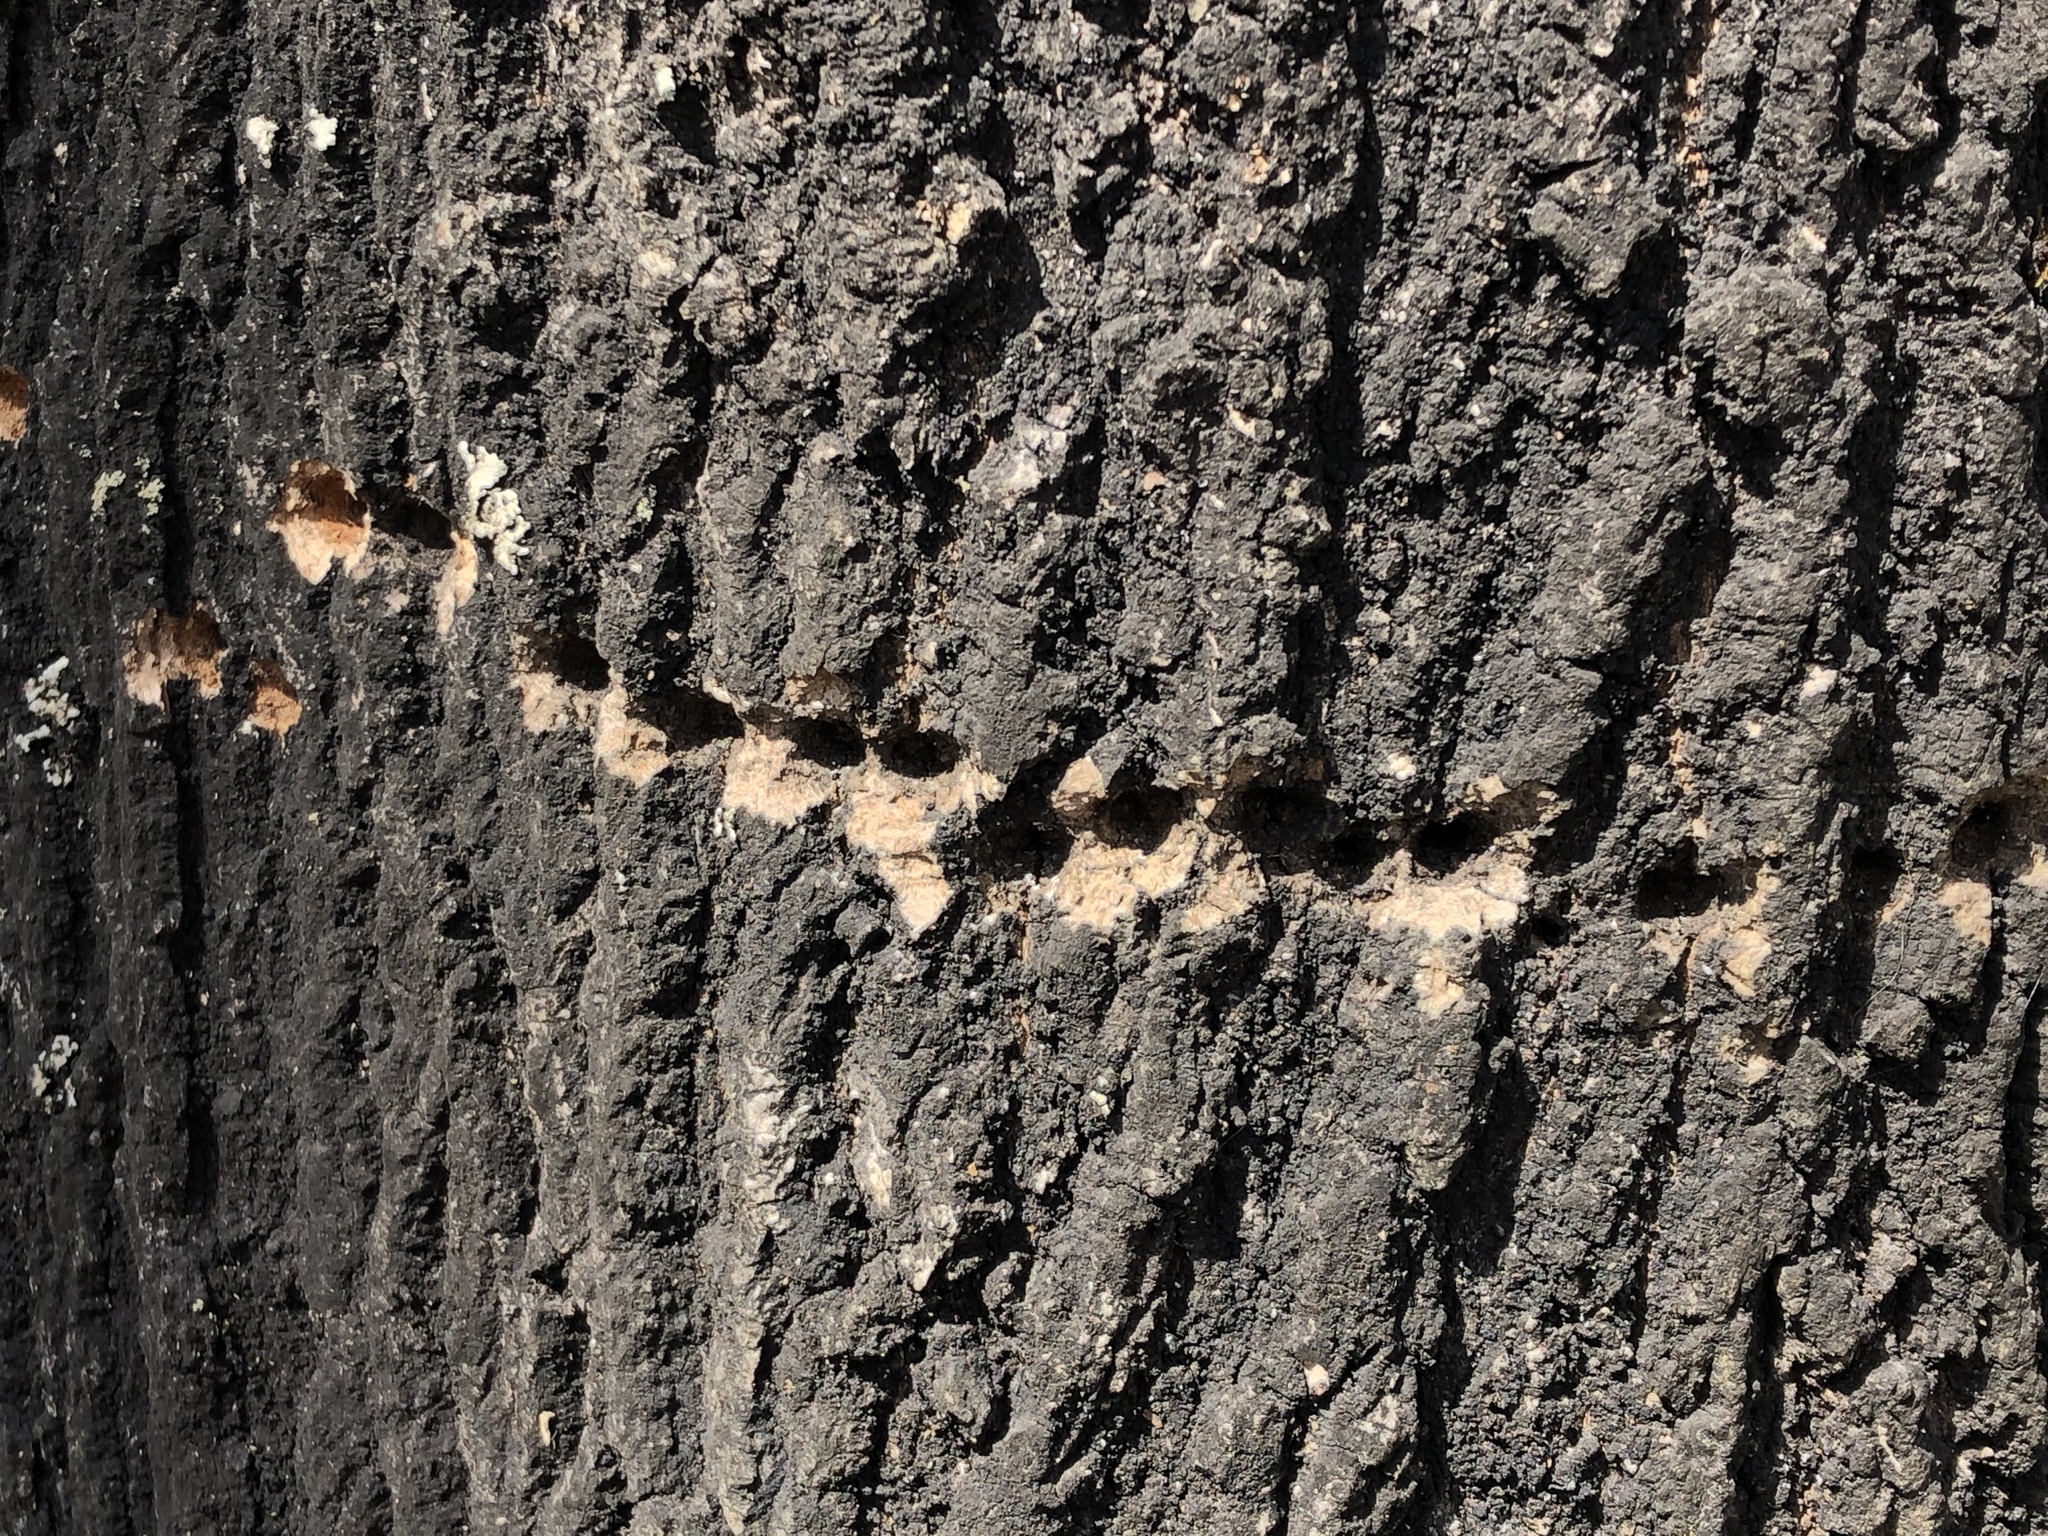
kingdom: Animalia
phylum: Chordata
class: Aves
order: Piciformes
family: Picidae
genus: Sphyrapicus
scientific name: Sphyrapicus varius
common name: Yellow-bellied sapsucker
